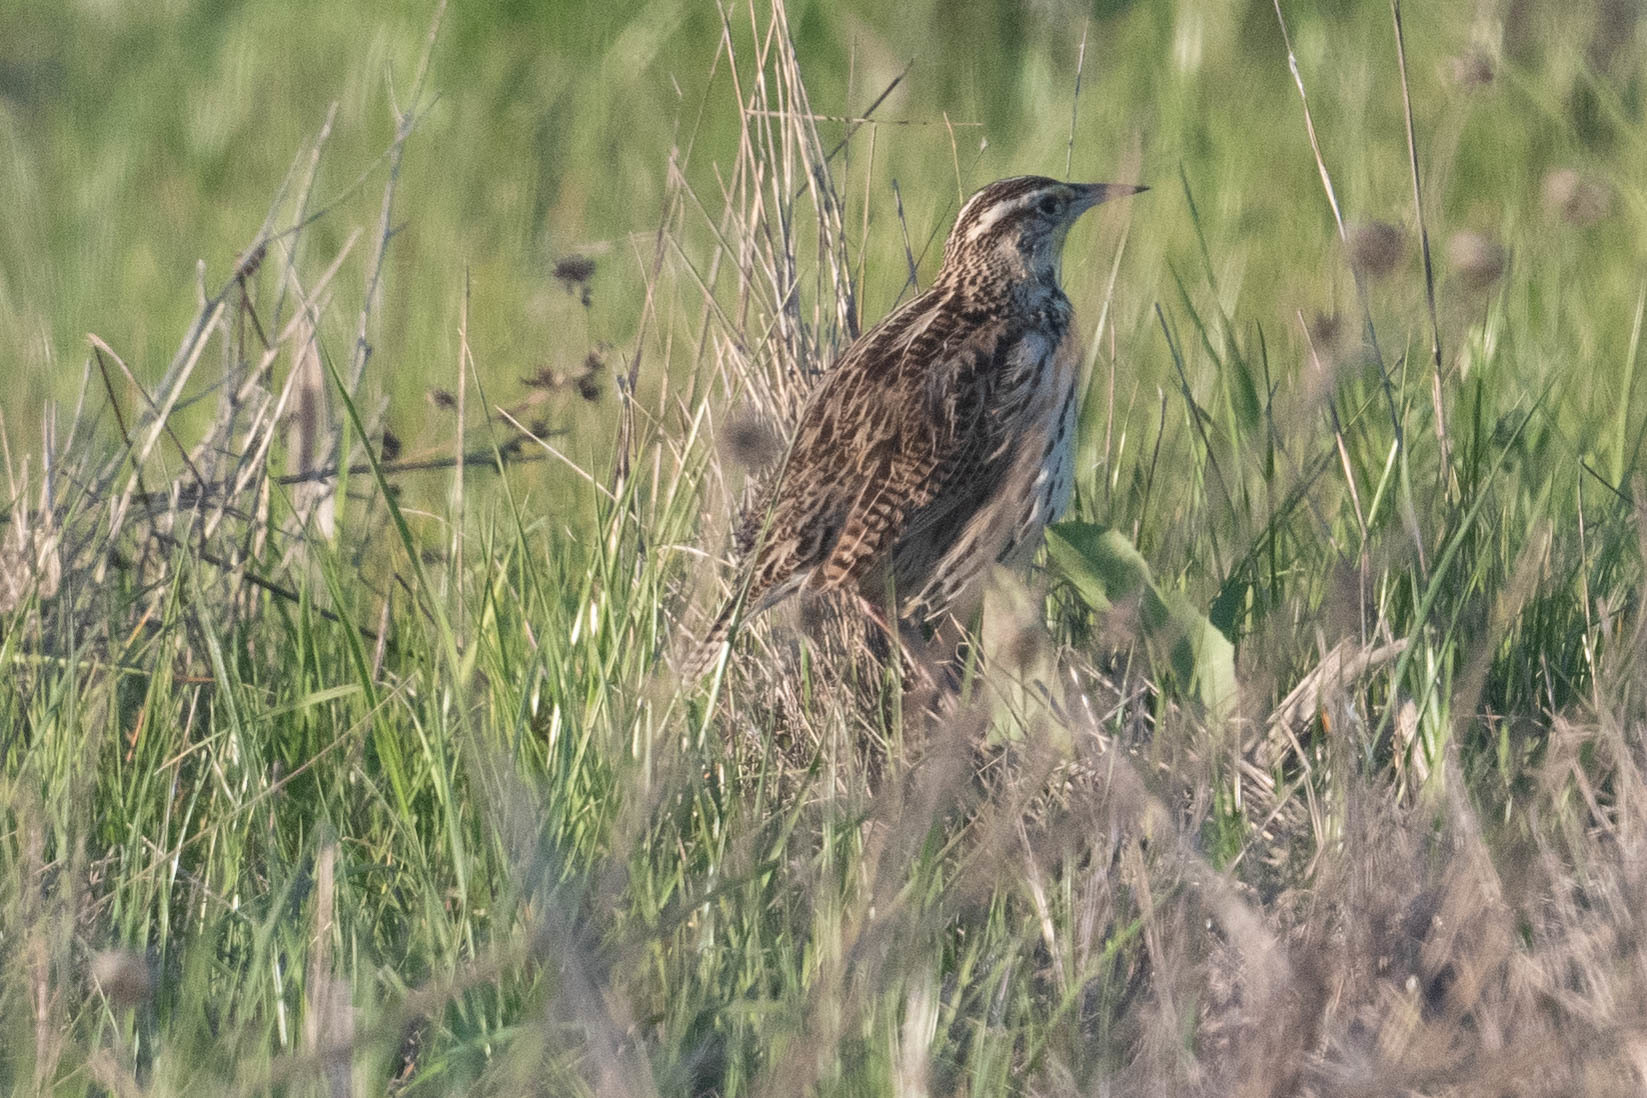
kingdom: Animalia
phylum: Chordata
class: Aves
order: Passeriformes
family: Icteridae
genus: Sturnella
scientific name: Sturnella neglecta
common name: Western meadowlark
